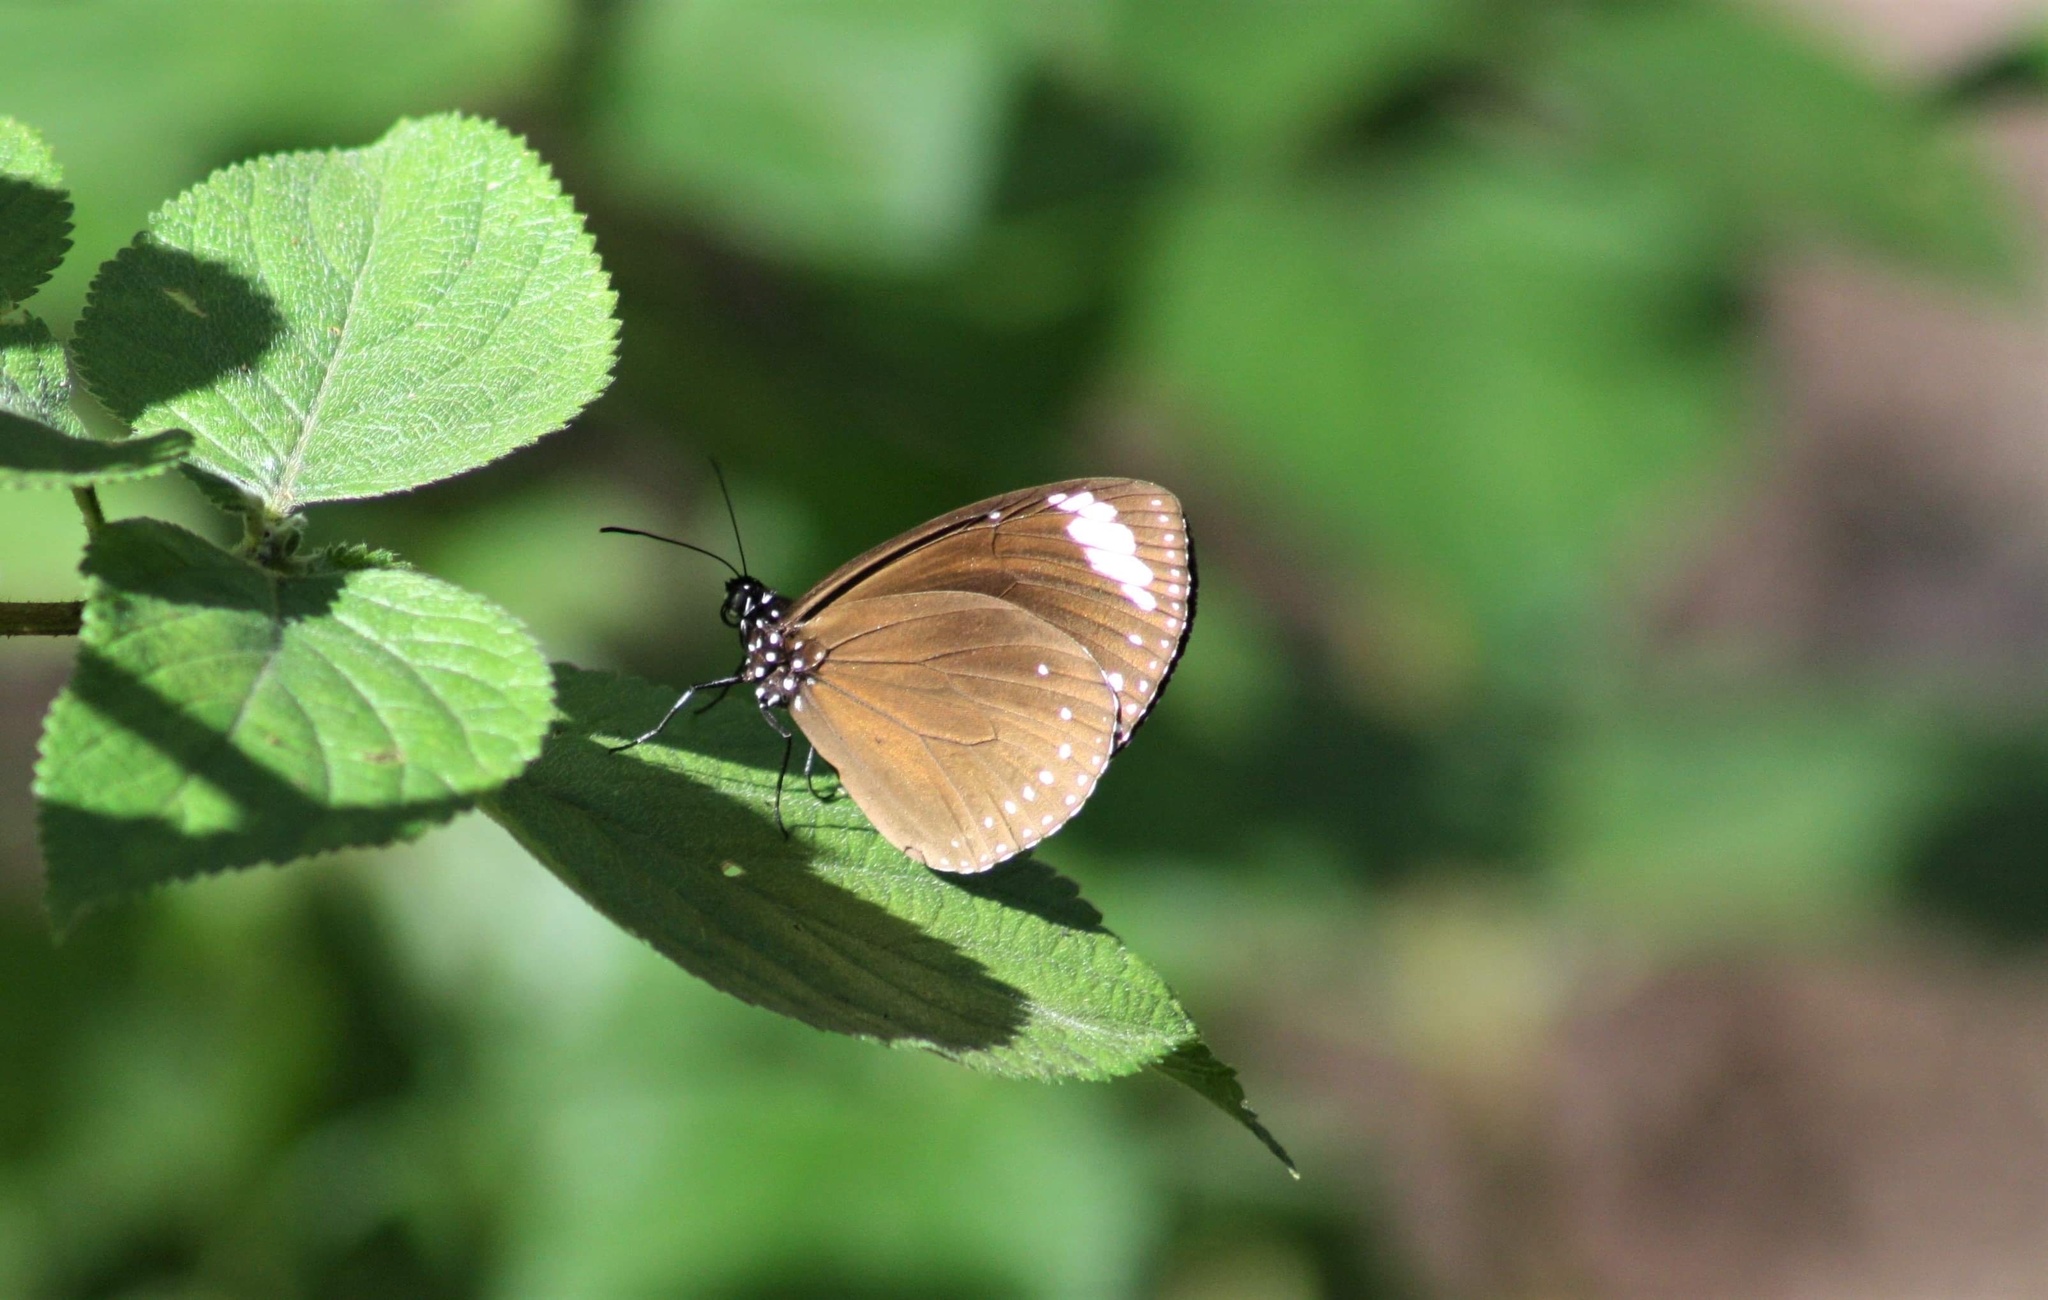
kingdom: Animalia
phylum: Arthropoda
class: Insecta
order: Lepidoptera
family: Nymphalidae
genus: Euploea
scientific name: Euploea tulliolus
